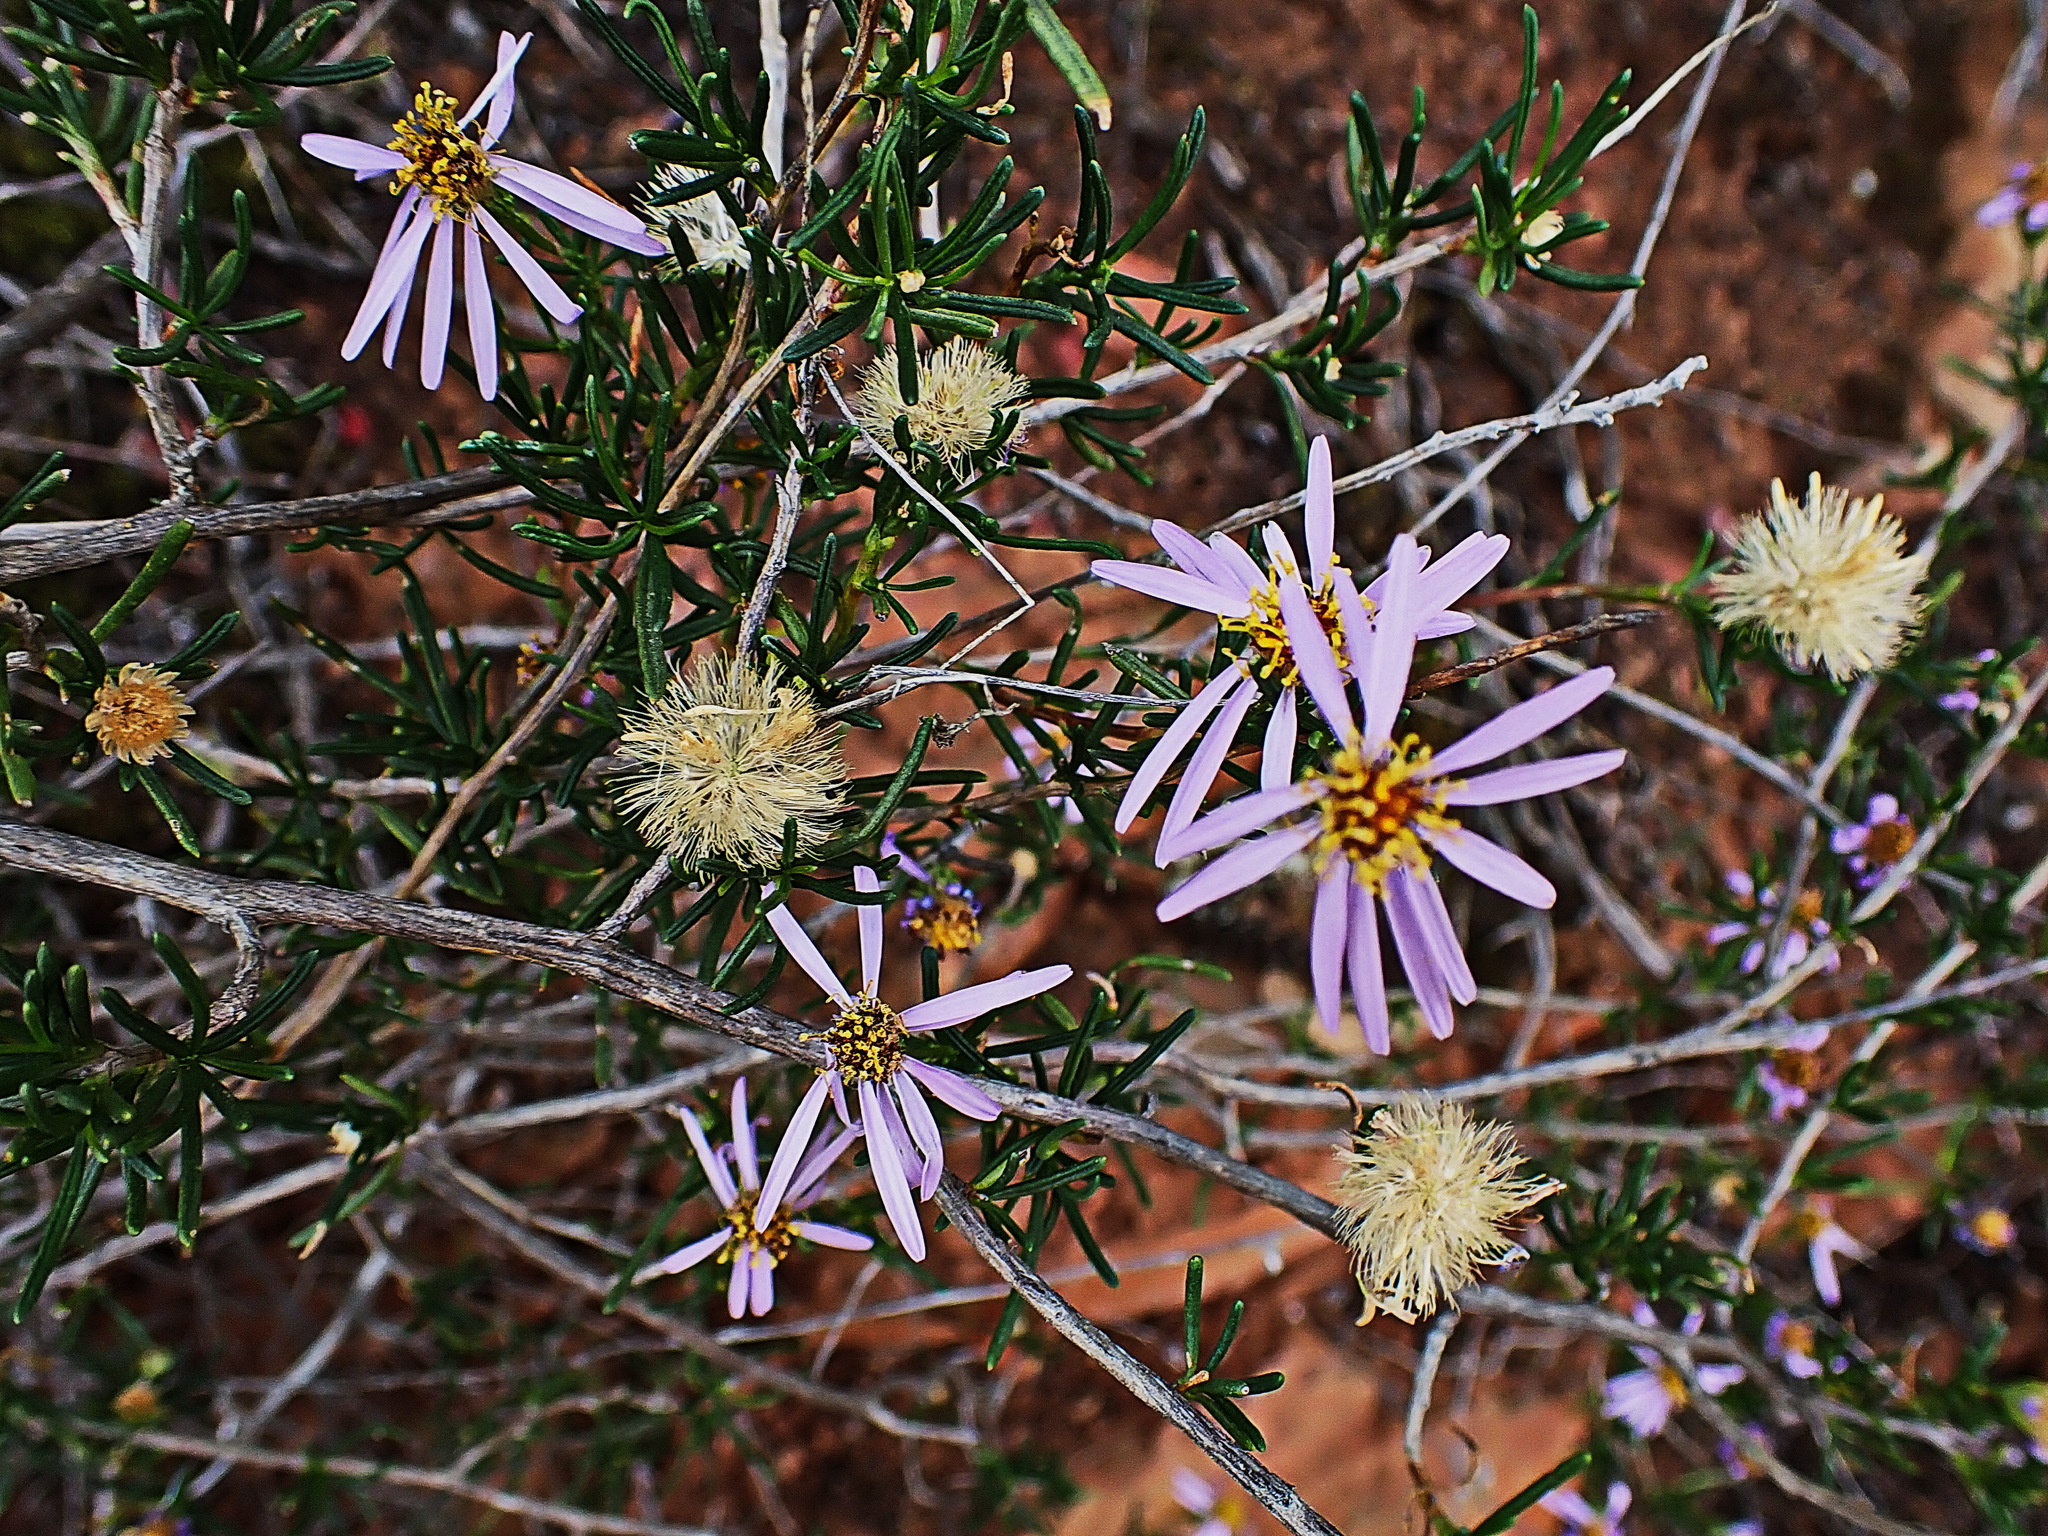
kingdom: Plantae
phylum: Tracheophyta
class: Magnoliopsida
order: Asterales
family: Asteraceae
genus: Felicia
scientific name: Felicia filifolia
